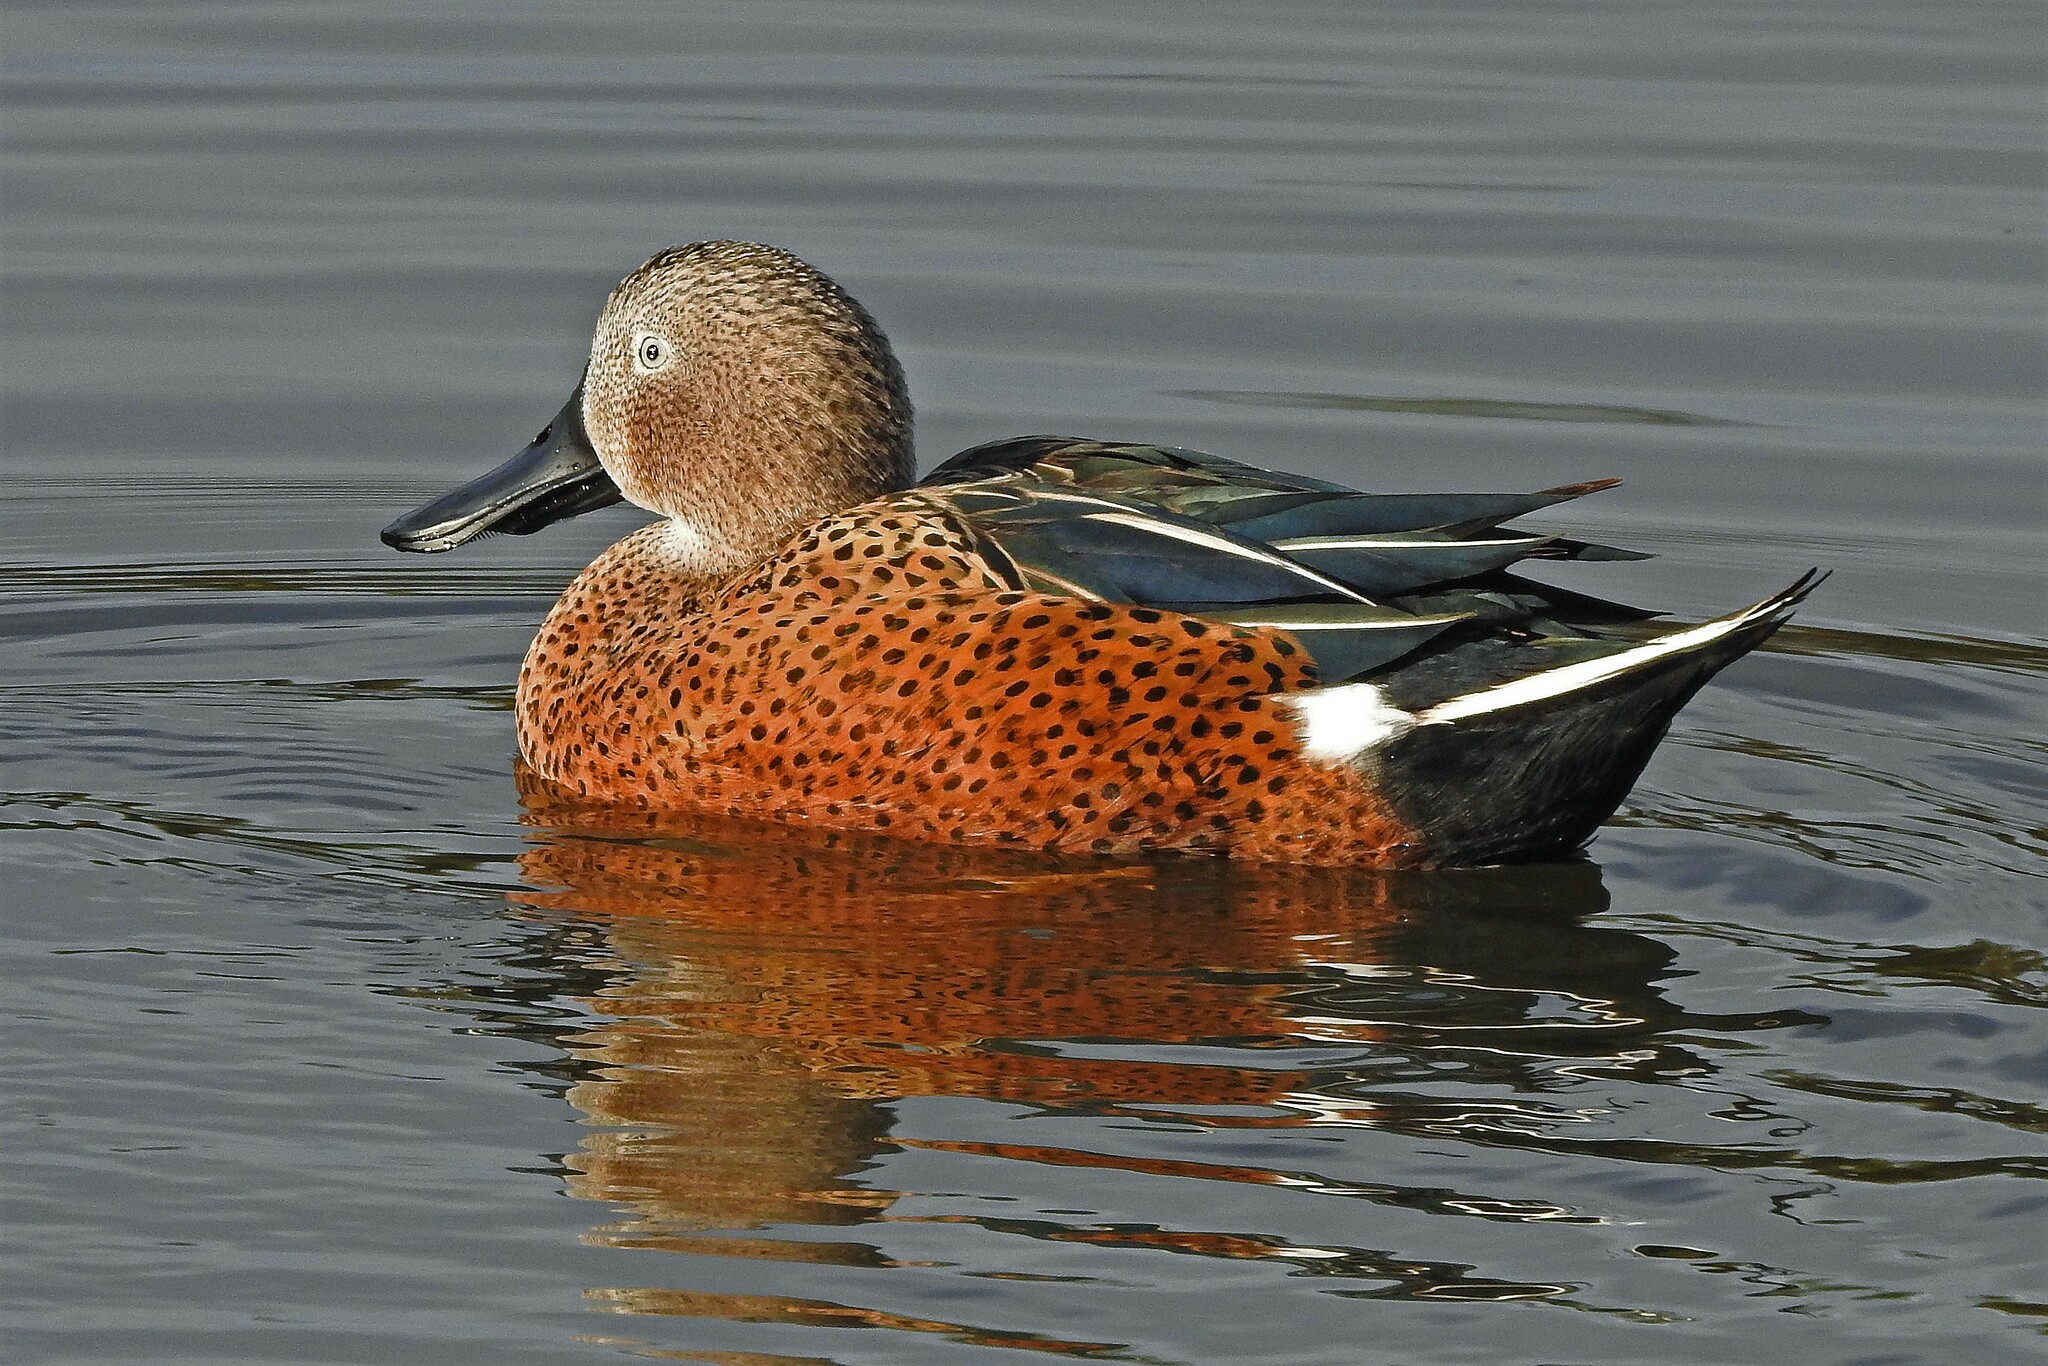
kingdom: Animalia
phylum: Chordata
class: Aves
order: Anseriformes
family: Anatidae
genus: Spatula
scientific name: Spatula platalea
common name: Red shoveler
